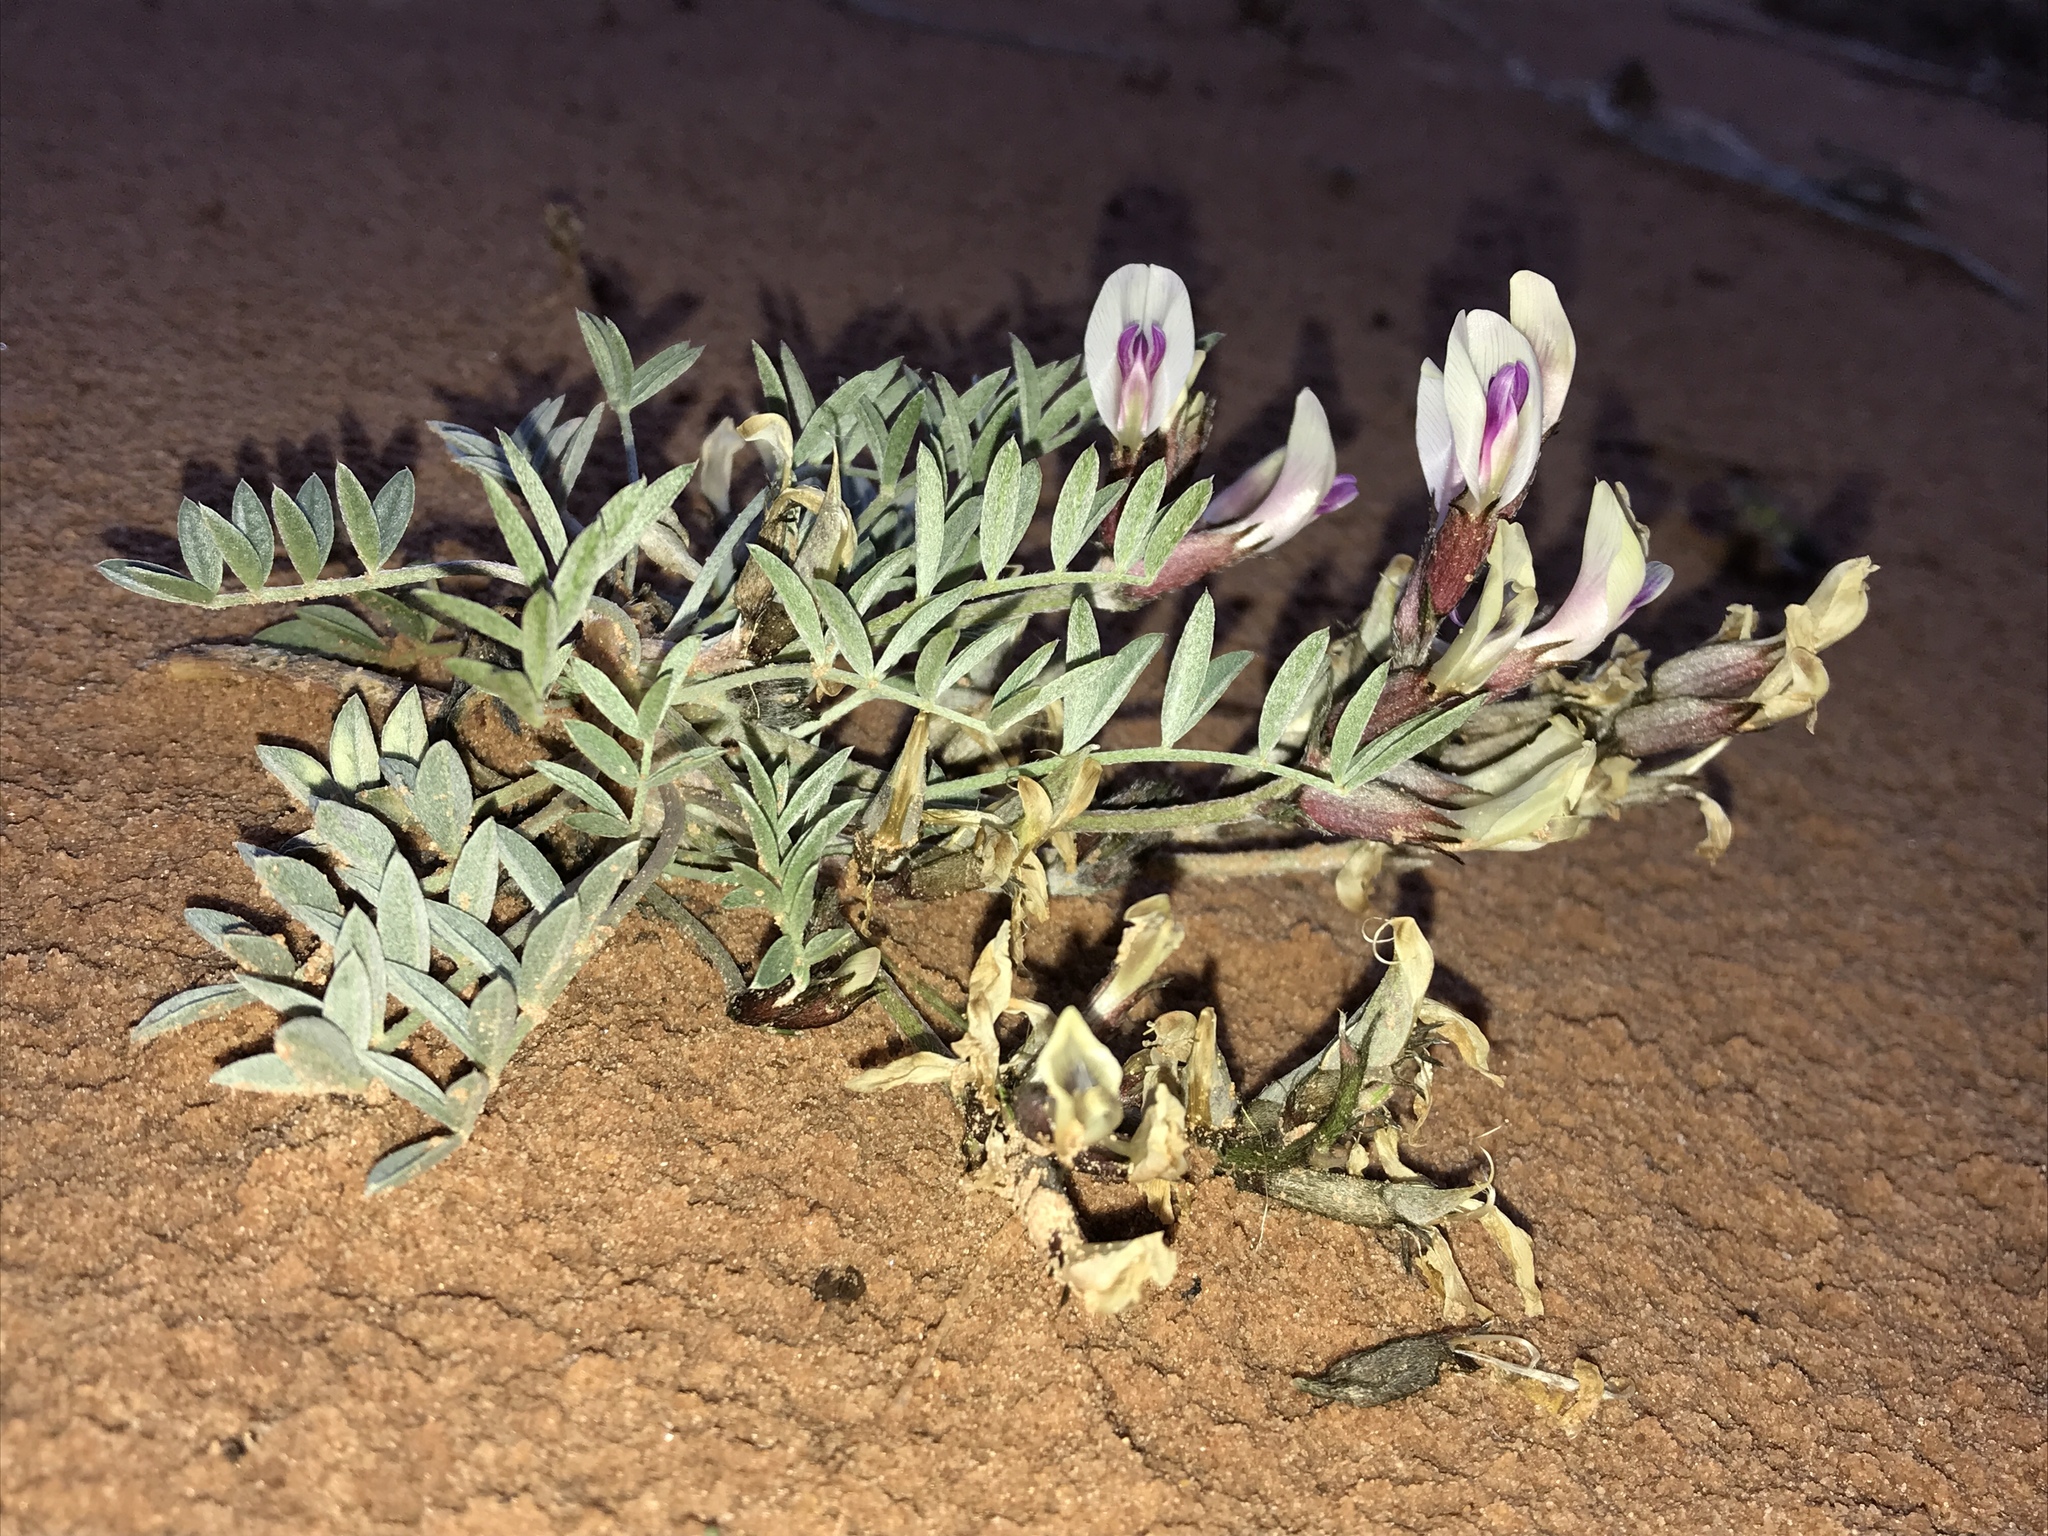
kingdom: Plantae
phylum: Tracheophyta
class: Magnoliopsida
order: Fabales
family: Fabaceae
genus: Astragalus
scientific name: Astragalus piscator
